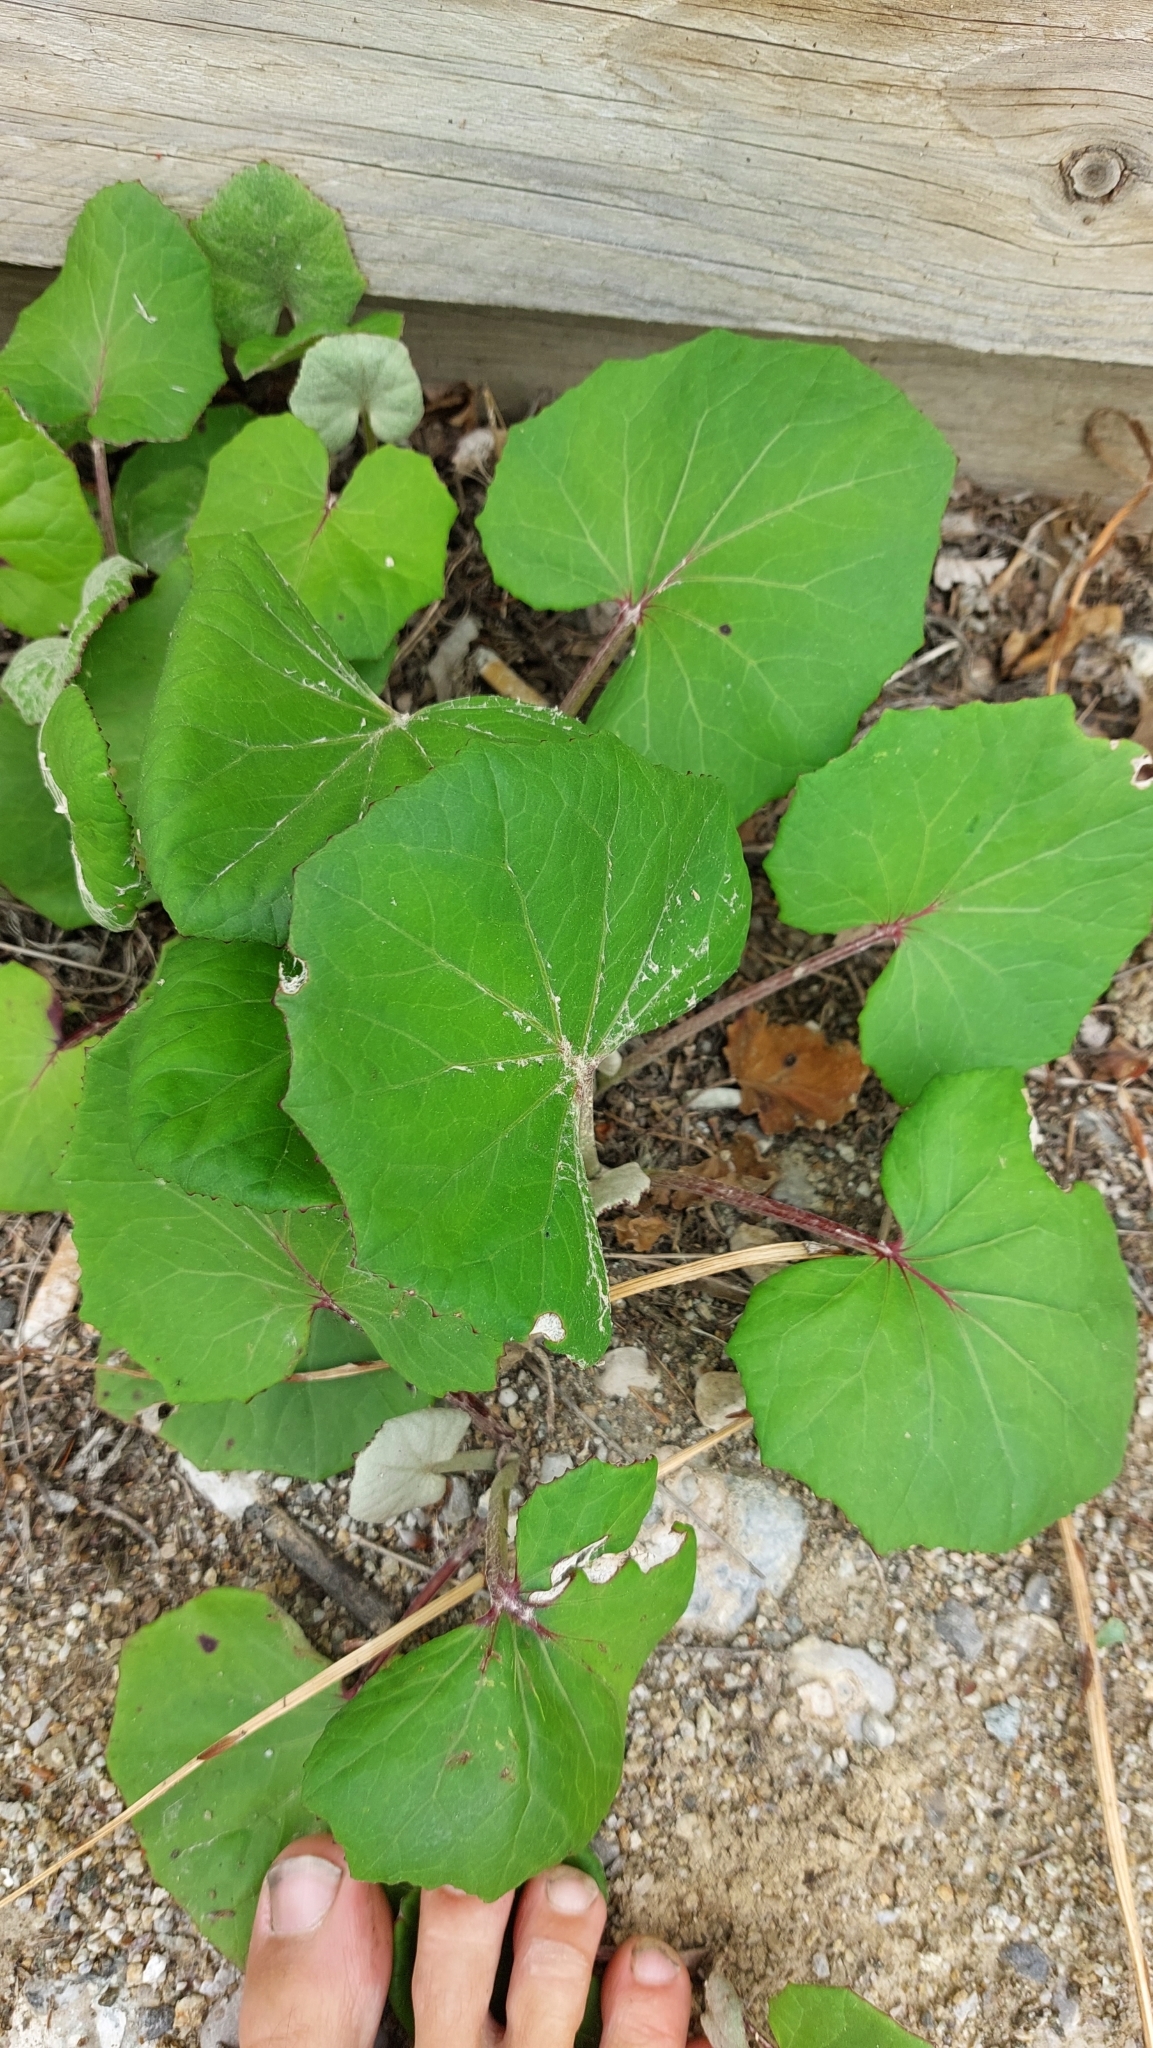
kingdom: Plantae
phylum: Tracheophyta
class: Magnoliopsida
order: Asterales
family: Asteraceae
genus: Tussilago
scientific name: Tussilago farfara
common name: Coltsfoot
